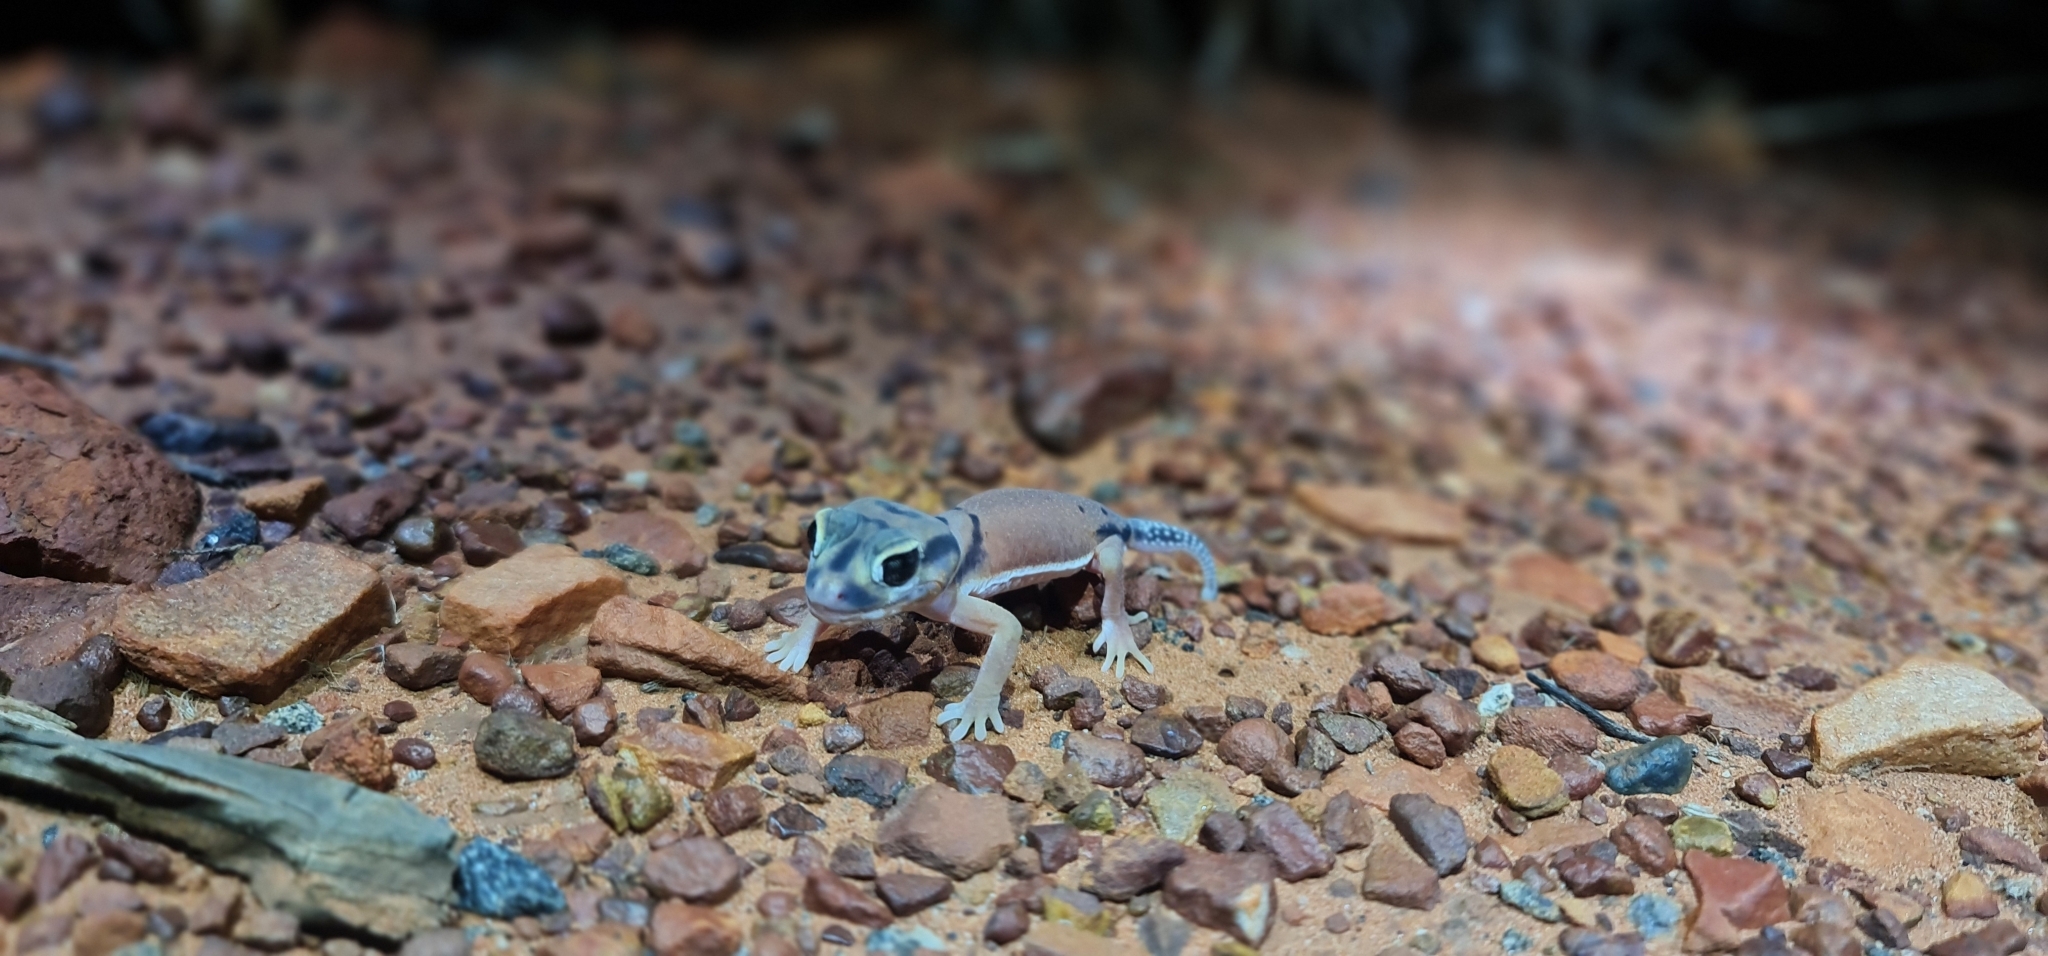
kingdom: Animalia
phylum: Chordata
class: Squamata
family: Carphodactylidae
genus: Nephrurus
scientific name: Nephrurus laevissimus
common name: Smooth knob-tail
